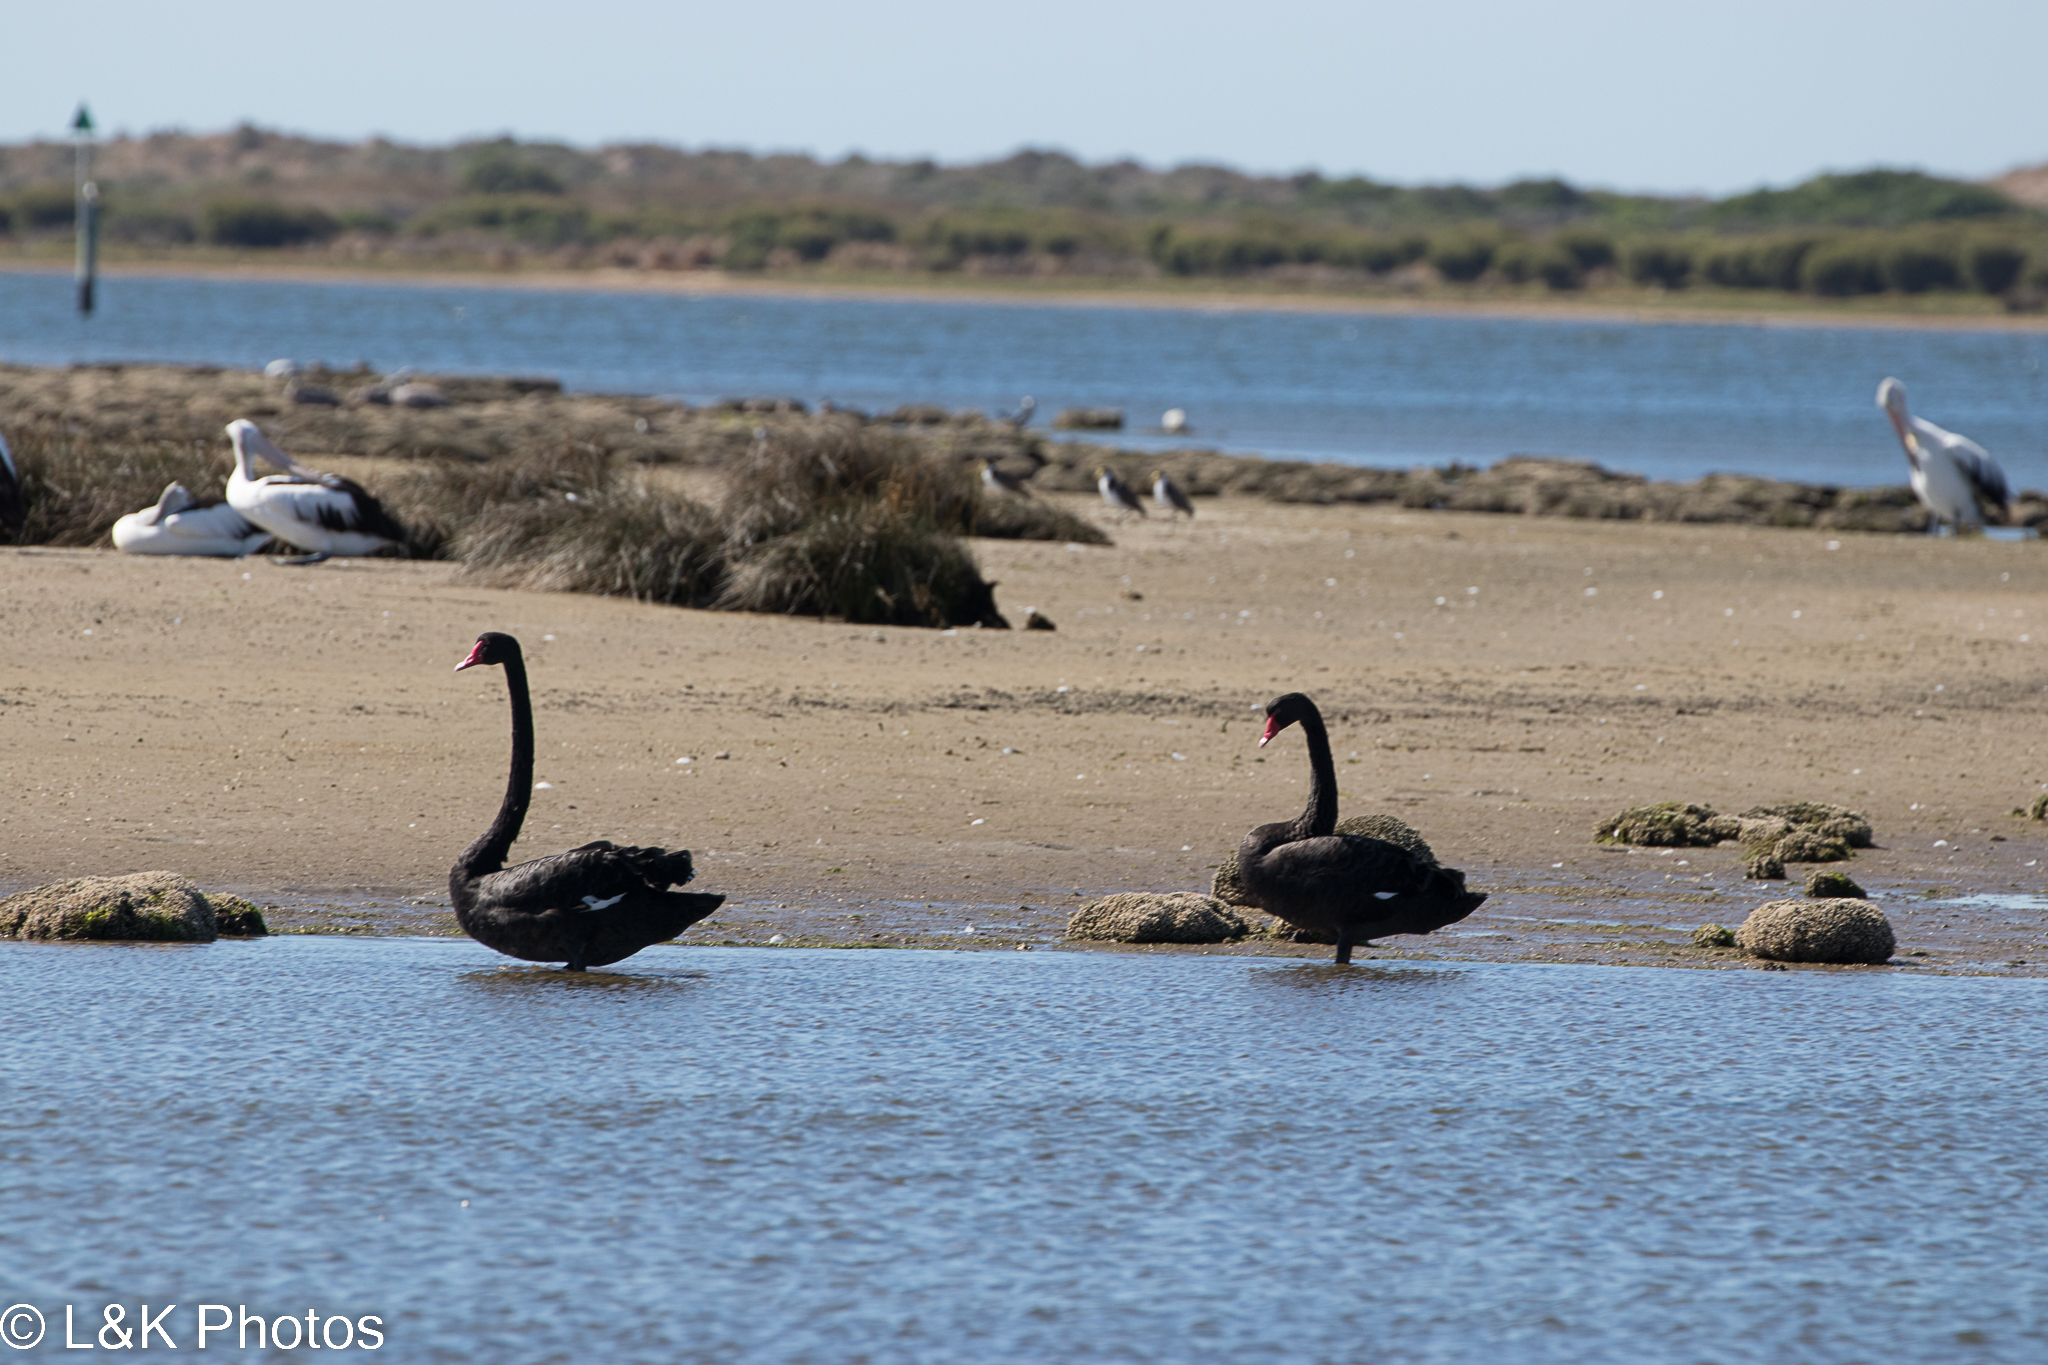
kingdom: Animalia
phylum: Chordata
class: Aves
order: Anseriformes
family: Anatidae
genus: Cygnus
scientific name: Cygnus atratus
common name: Black swan
